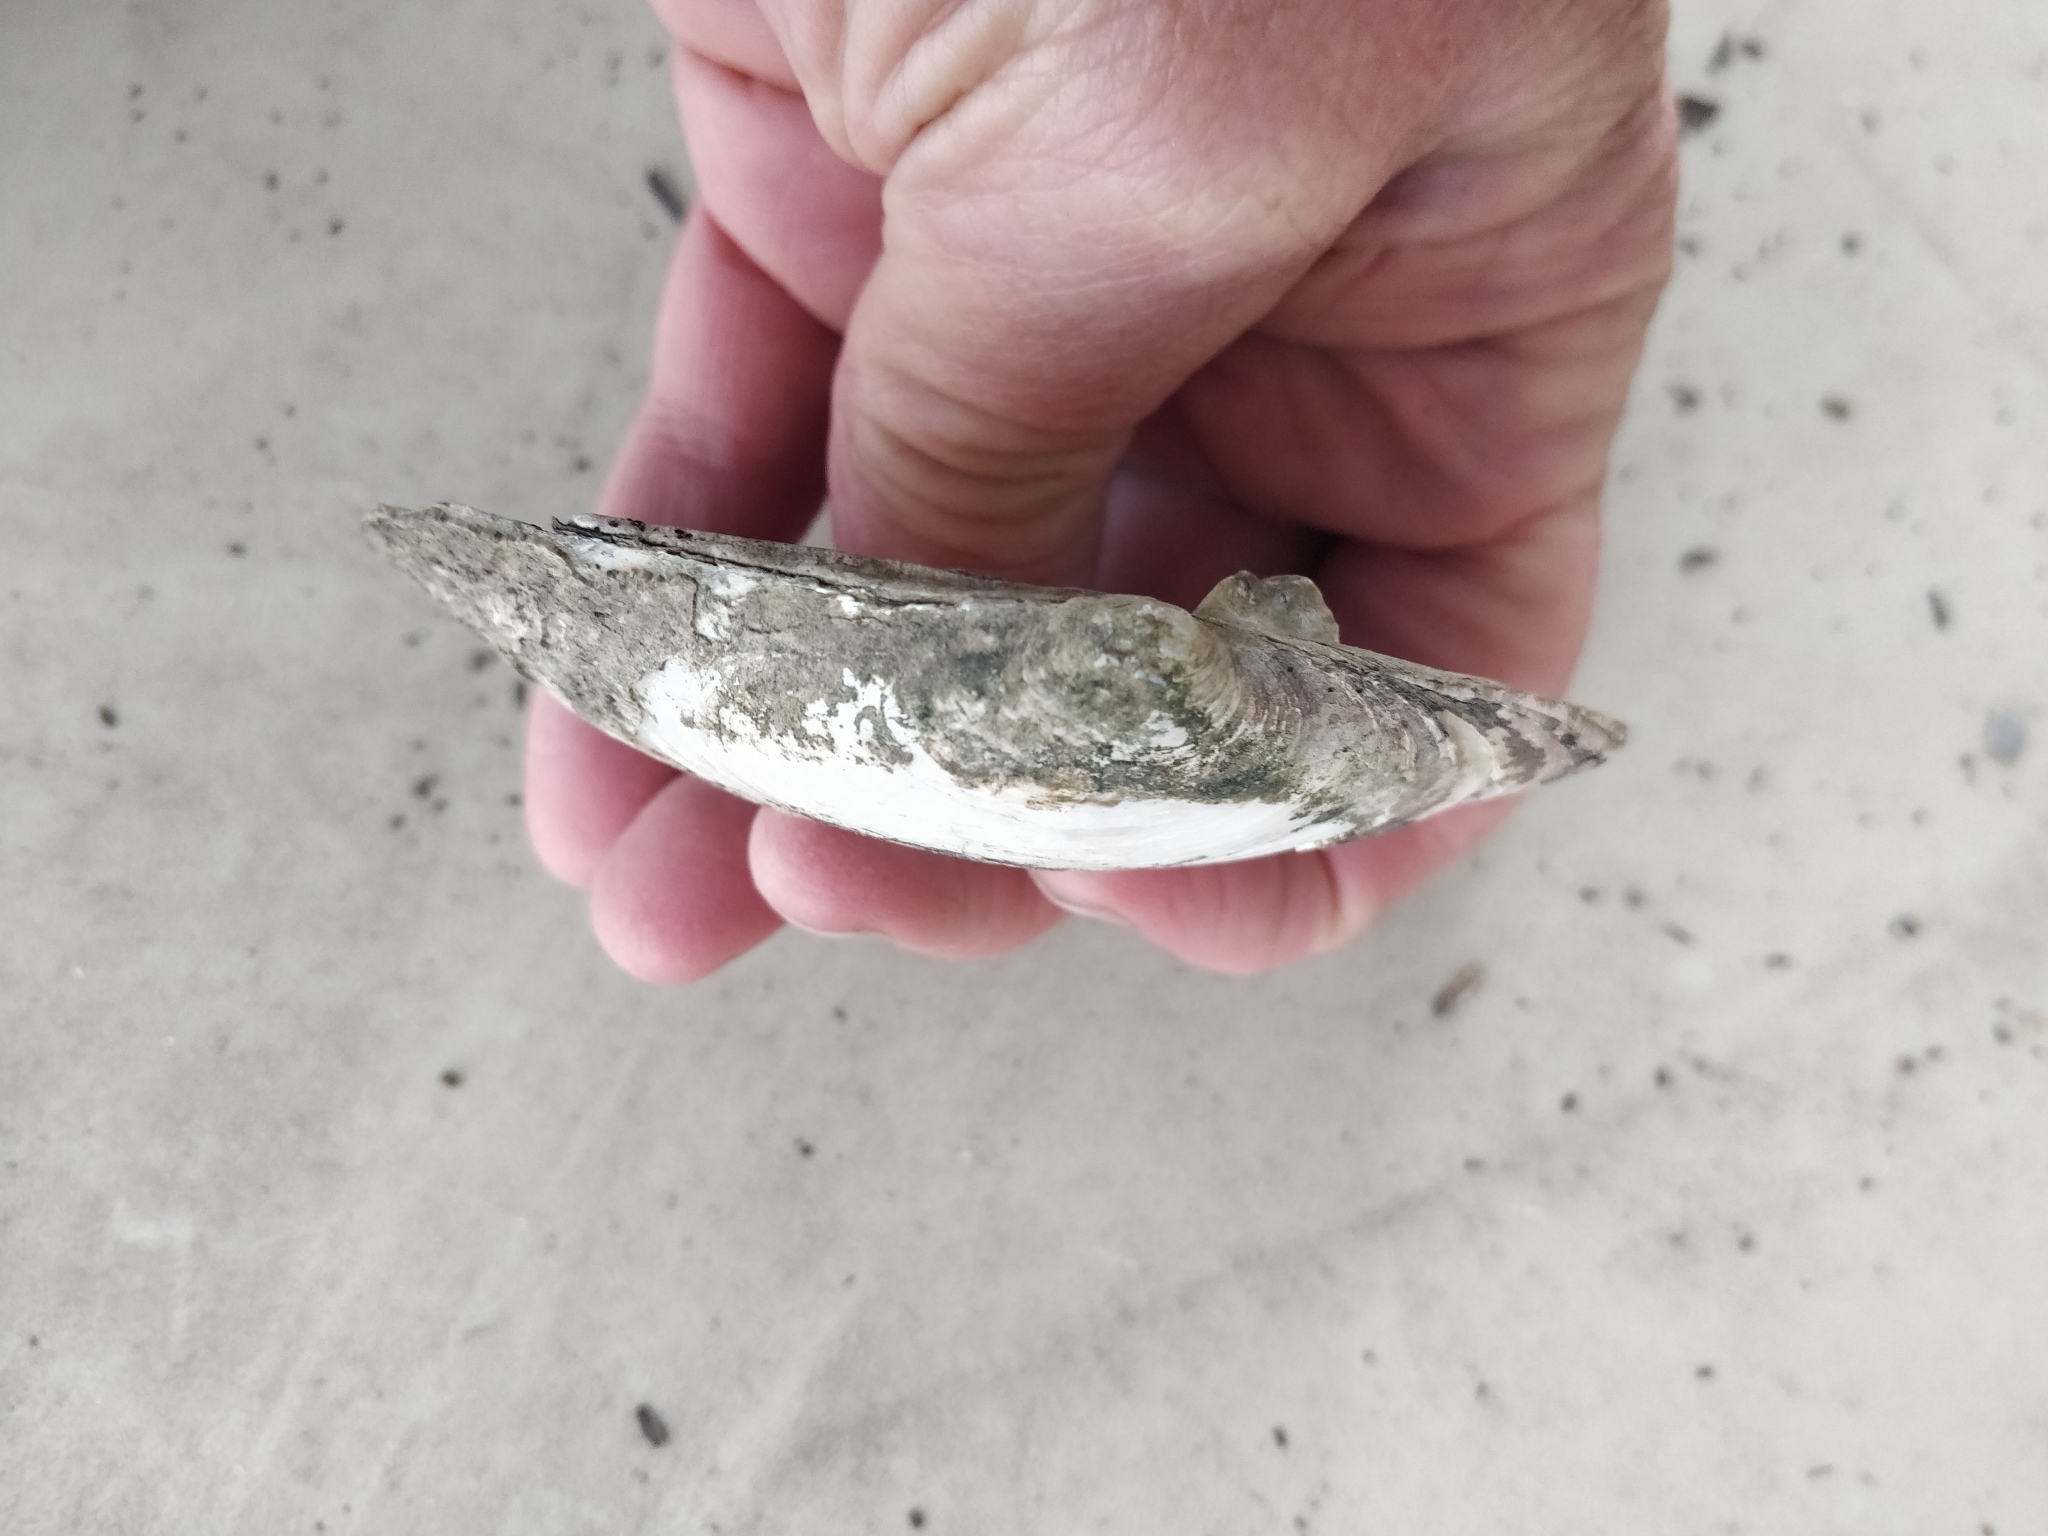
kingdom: Animalia
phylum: Mollusca
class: Bivalvia
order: Unionida
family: Unionidae
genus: Lasmigona
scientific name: Lasmigona complanata
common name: White heelsplitter
